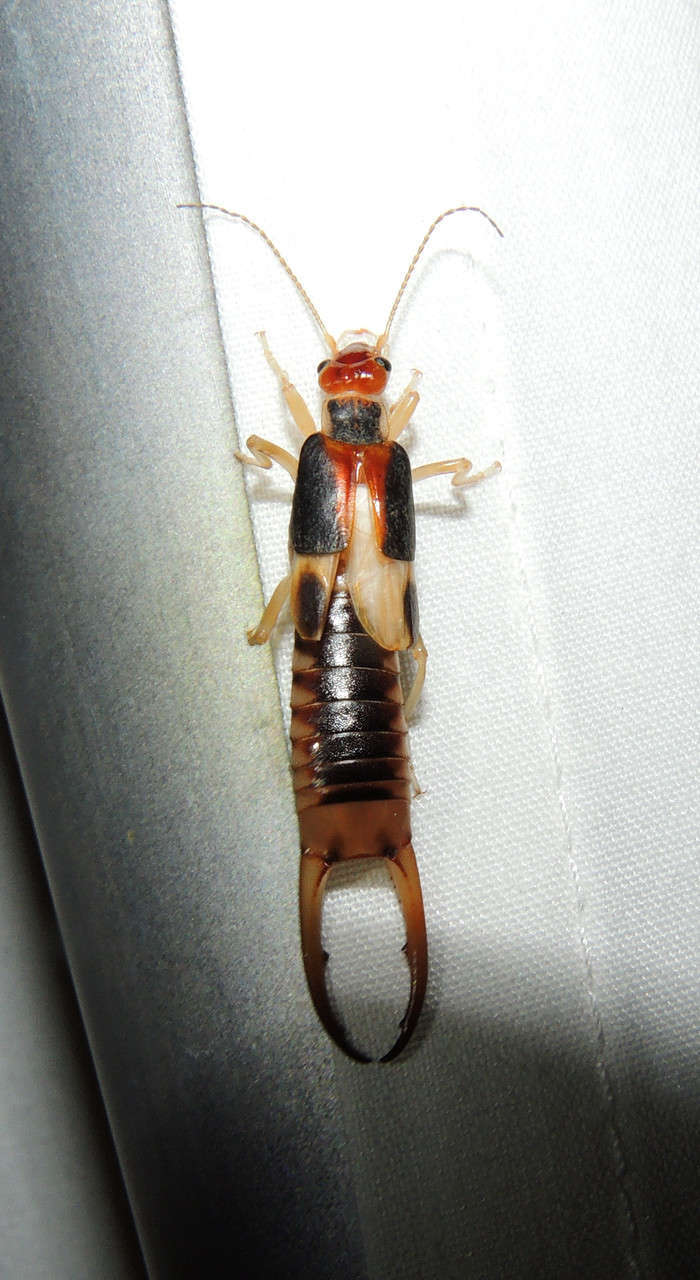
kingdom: Animalia
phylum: Arthropoda
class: Insecta
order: Dermaptera
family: Labiduridae
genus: Labidura
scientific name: Labidura riparia
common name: Striped earwig
